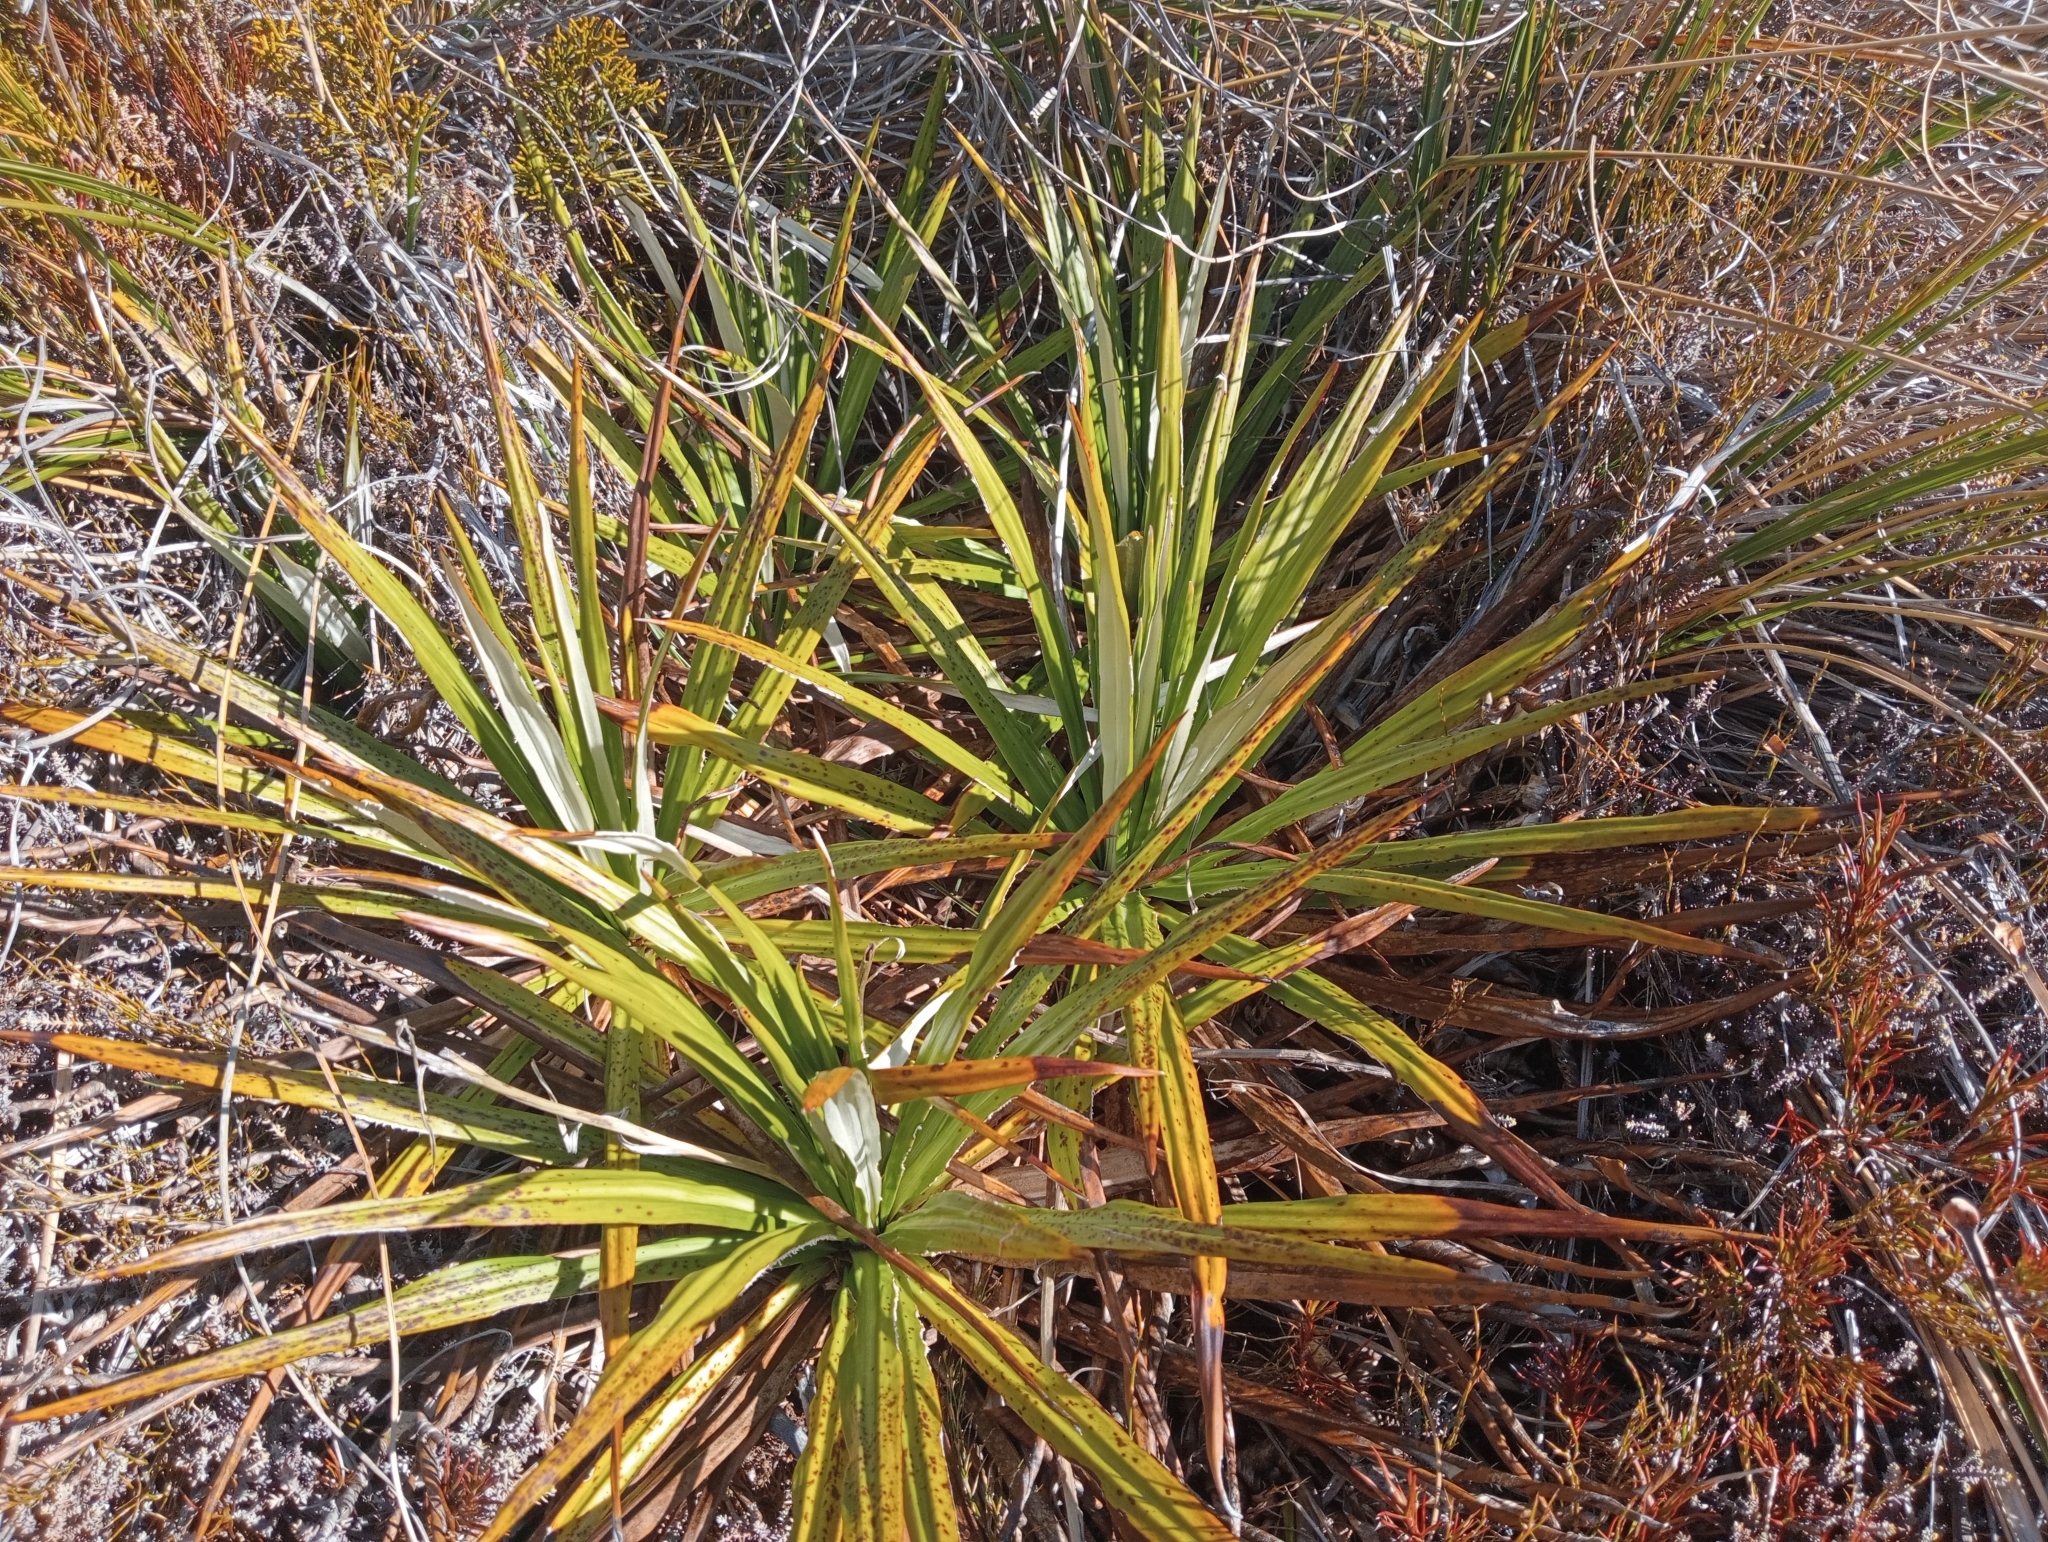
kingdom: Plantae
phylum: Tracheophyta
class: Magnoliopsida
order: Asterales
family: Asteraceae
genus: Celmisia
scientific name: Celmisia petriei
